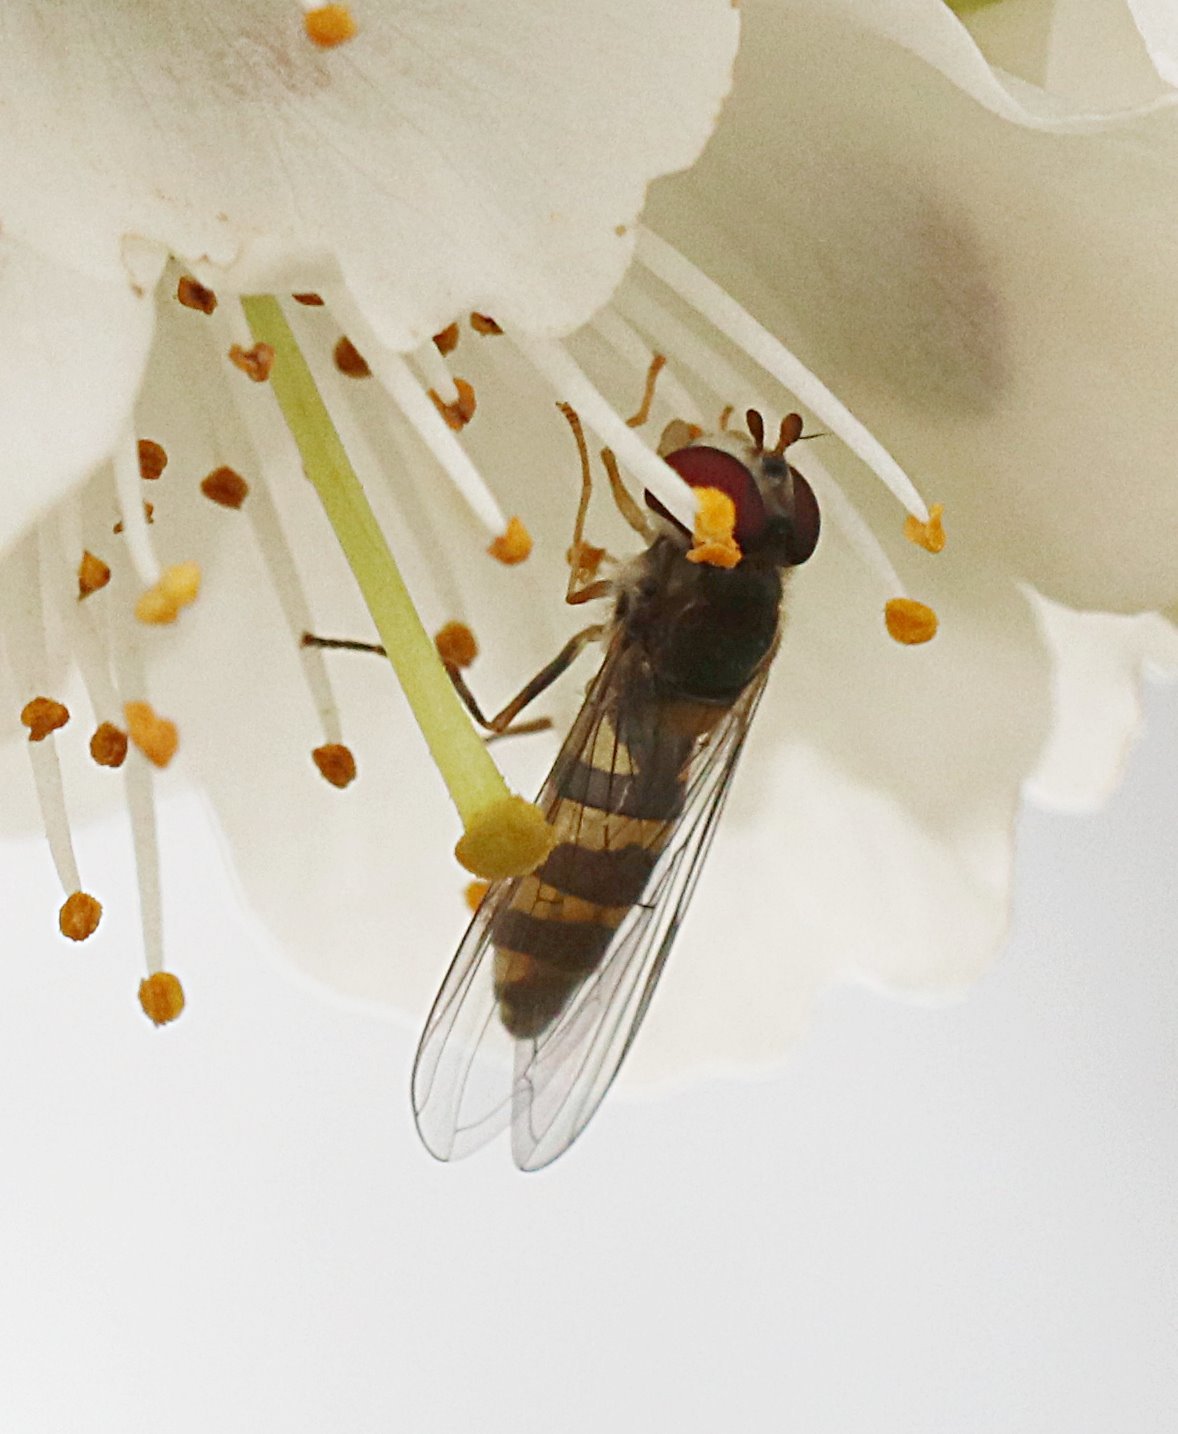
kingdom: Animalia
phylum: Arthropoda
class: Insecta
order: Diptera
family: Syrphidae
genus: Fagisyrphus
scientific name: Fagisyrphus cincta
